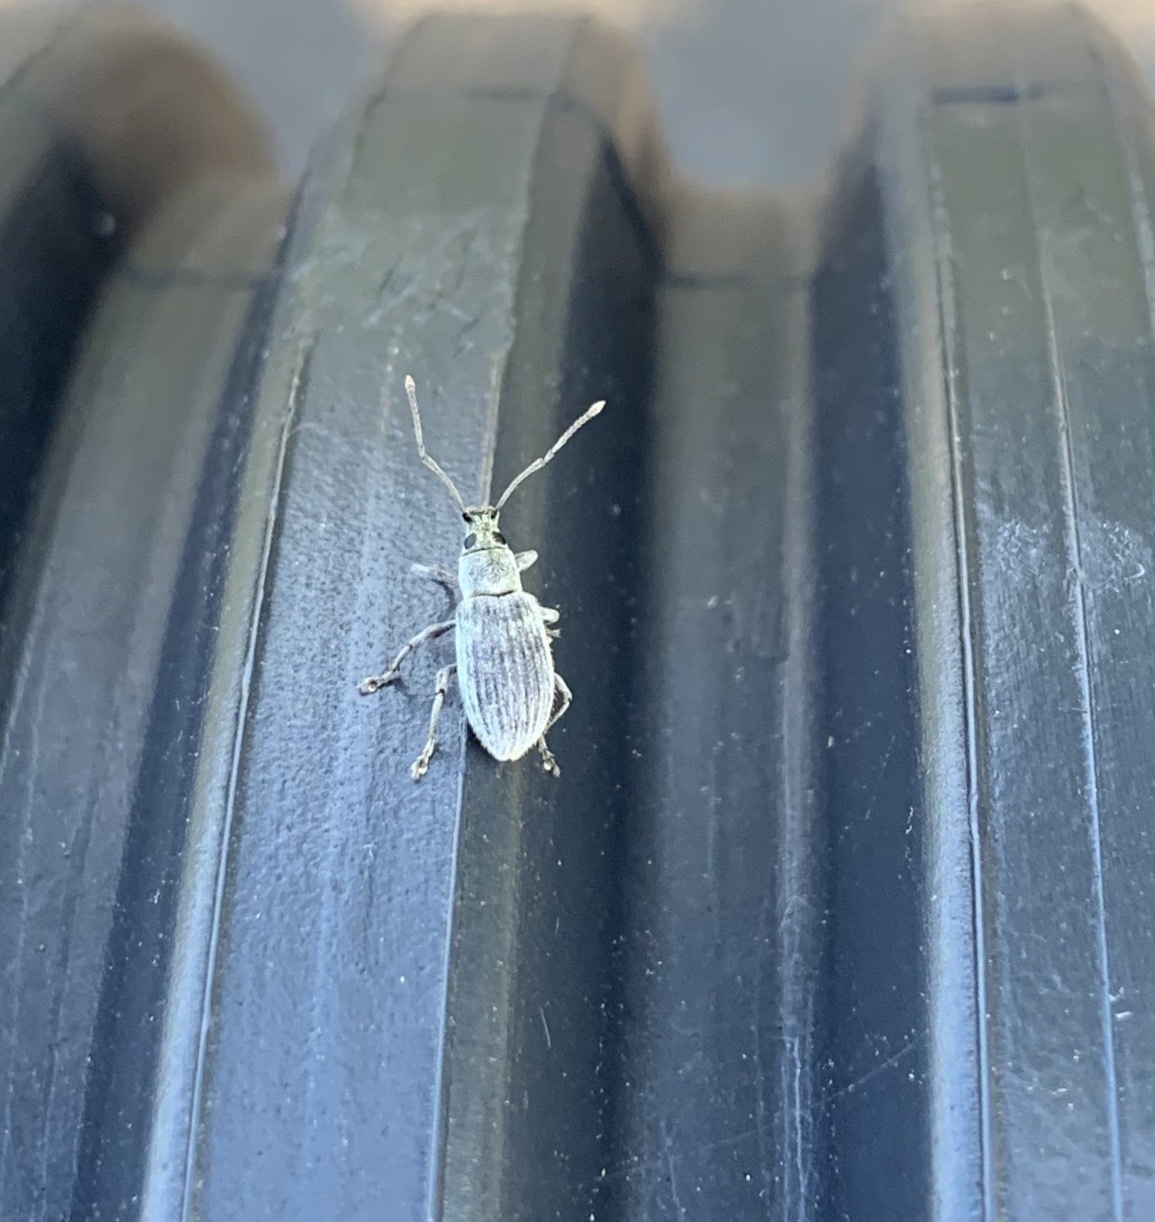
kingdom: Animalia
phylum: Arthropoda
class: Insecta
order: Coleoptera
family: Curculionidae
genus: Cyrtepistomus
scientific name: Cyrtepistomus castaneus
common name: Weevil
